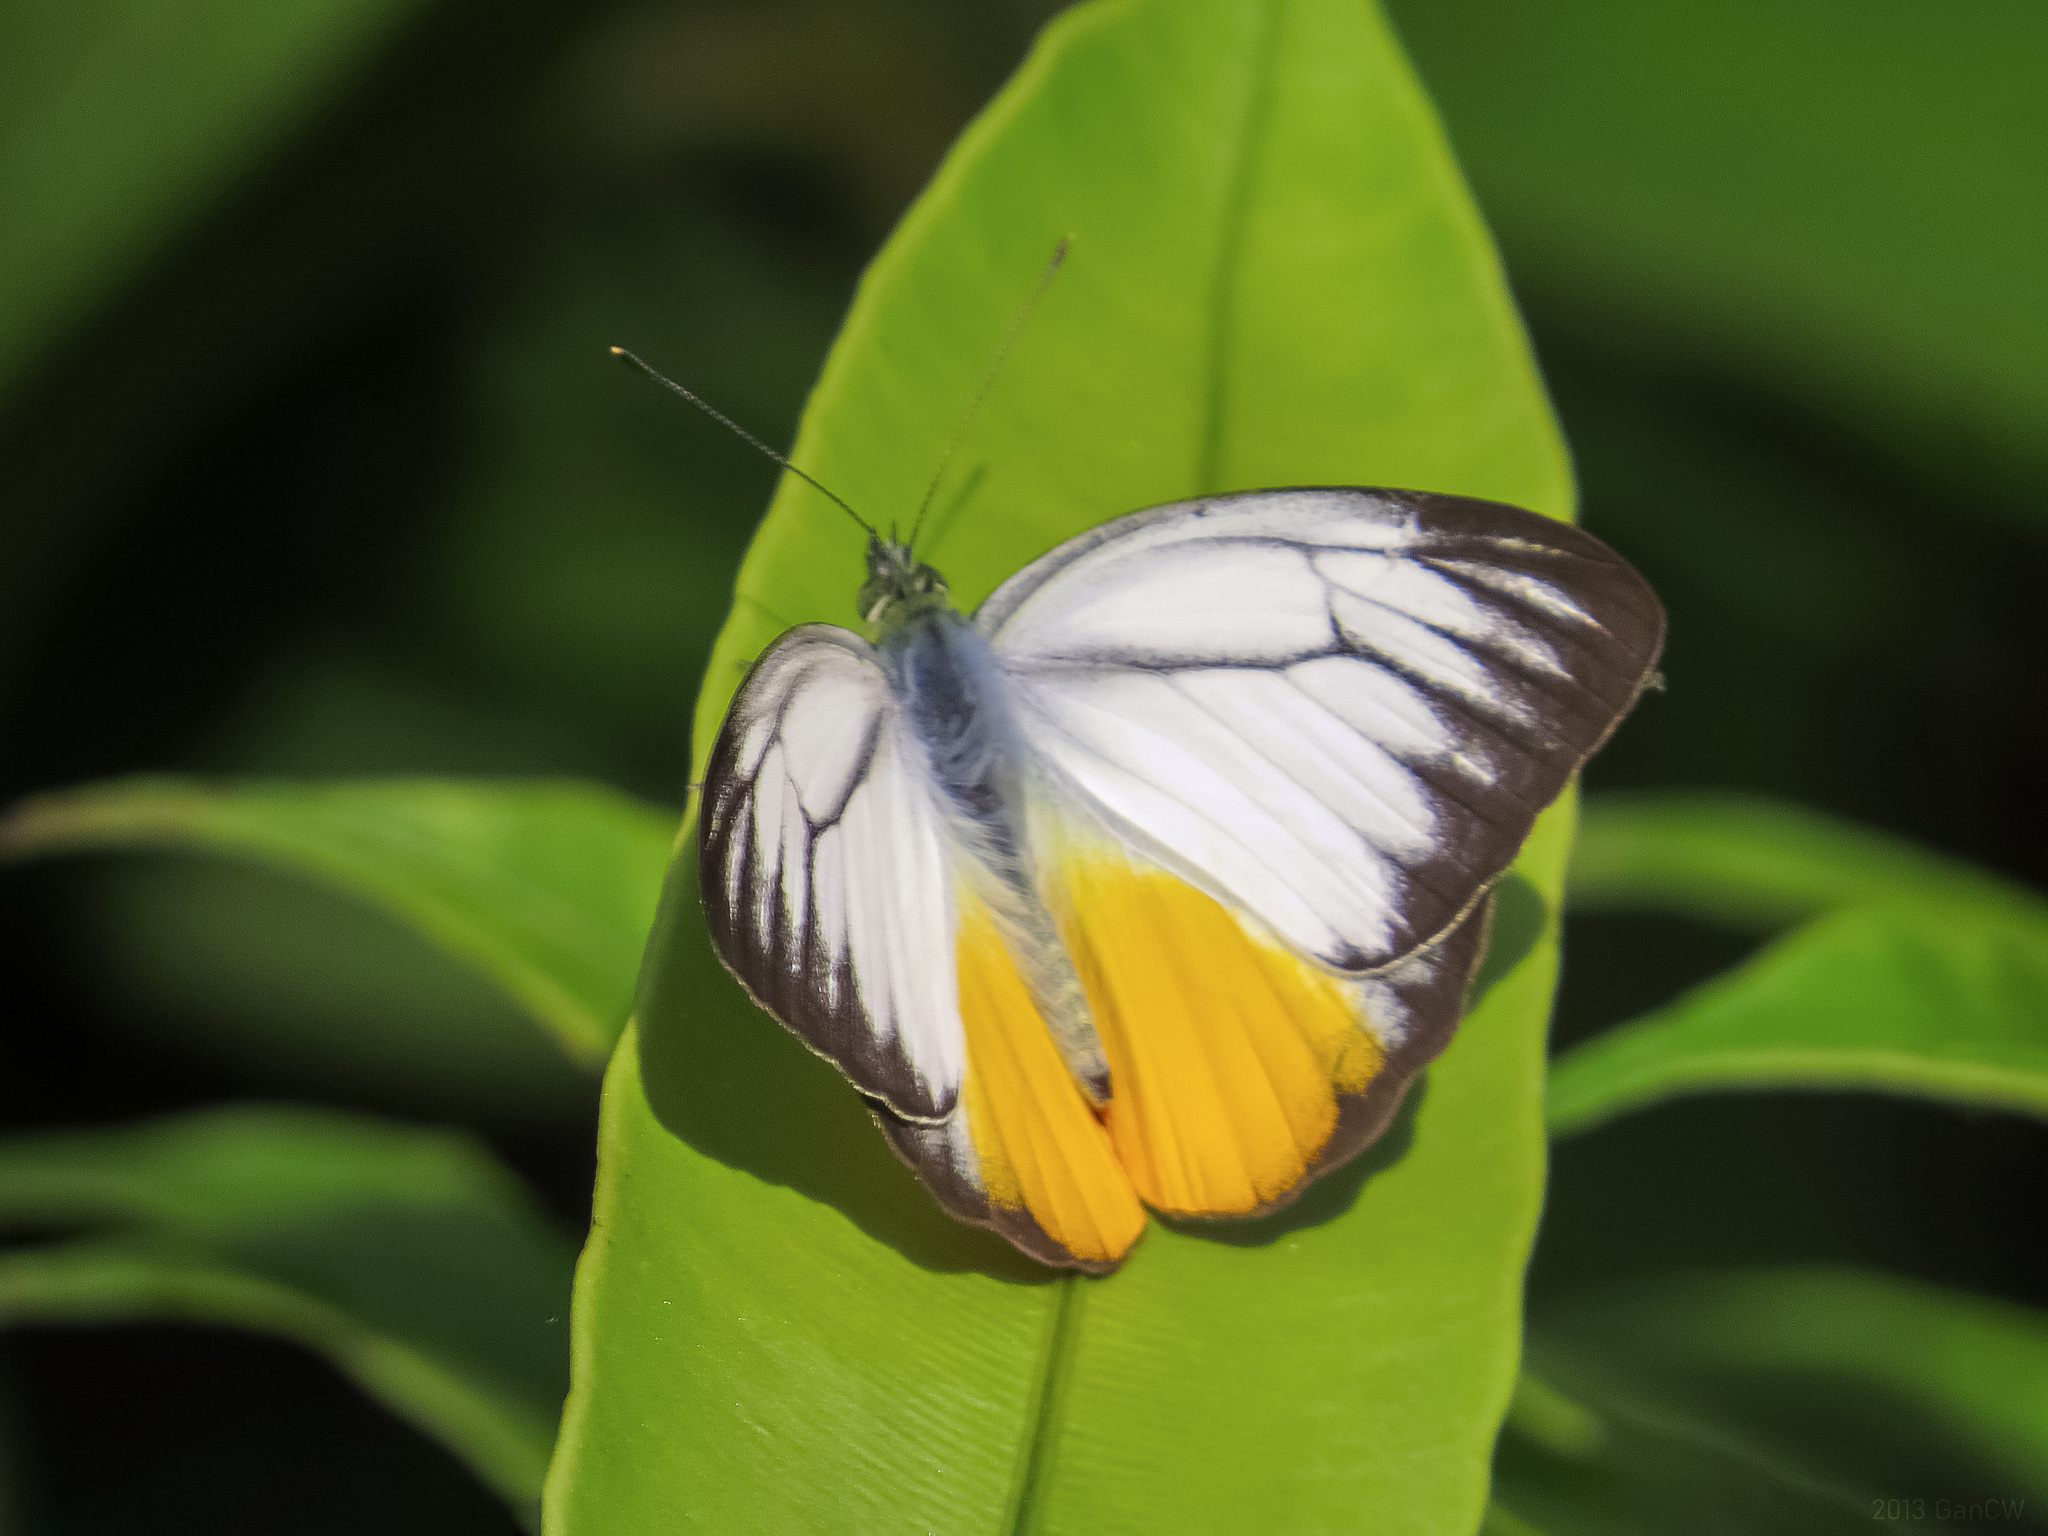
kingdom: Animalia
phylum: Arthropoda
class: Insecta
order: Lepidoptera
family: Pieridae
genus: Cepora
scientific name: Cepora iudith
